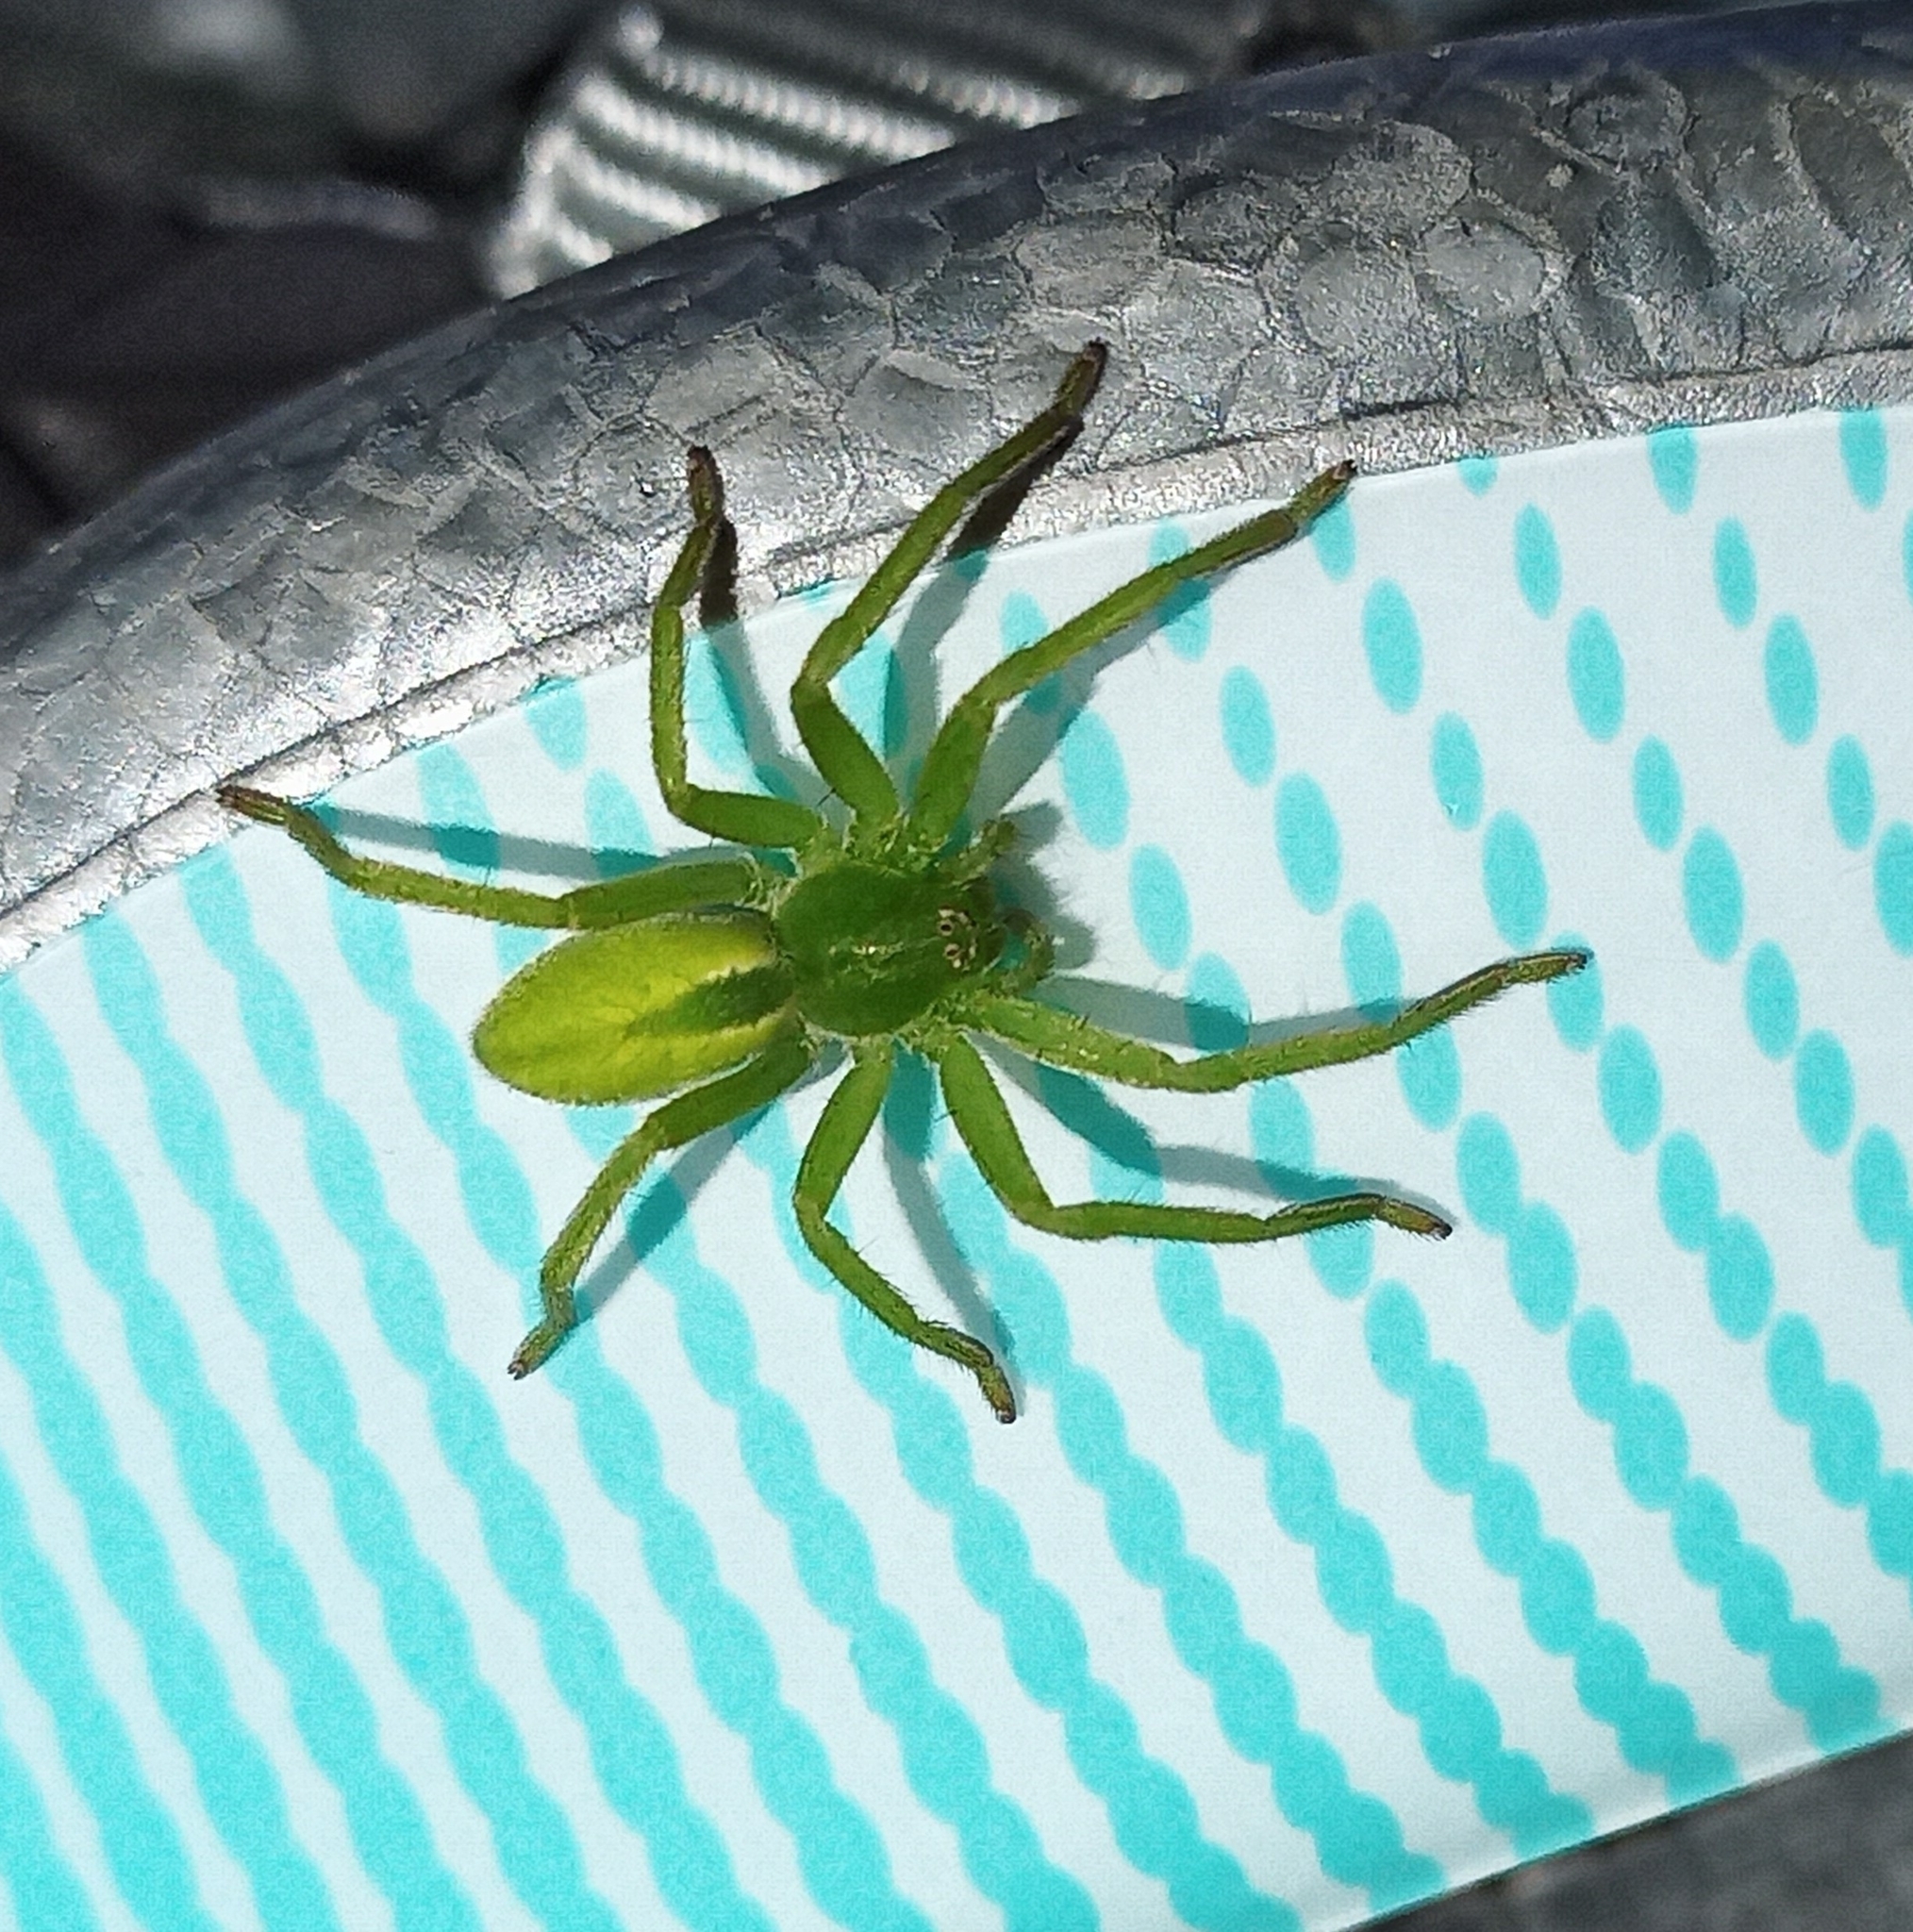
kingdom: Animalia
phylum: Arthropoda
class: Arachnida
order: Araneae
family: Sparassidae
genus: Micrommata
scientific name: Micrommata virescens
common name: Green spider
